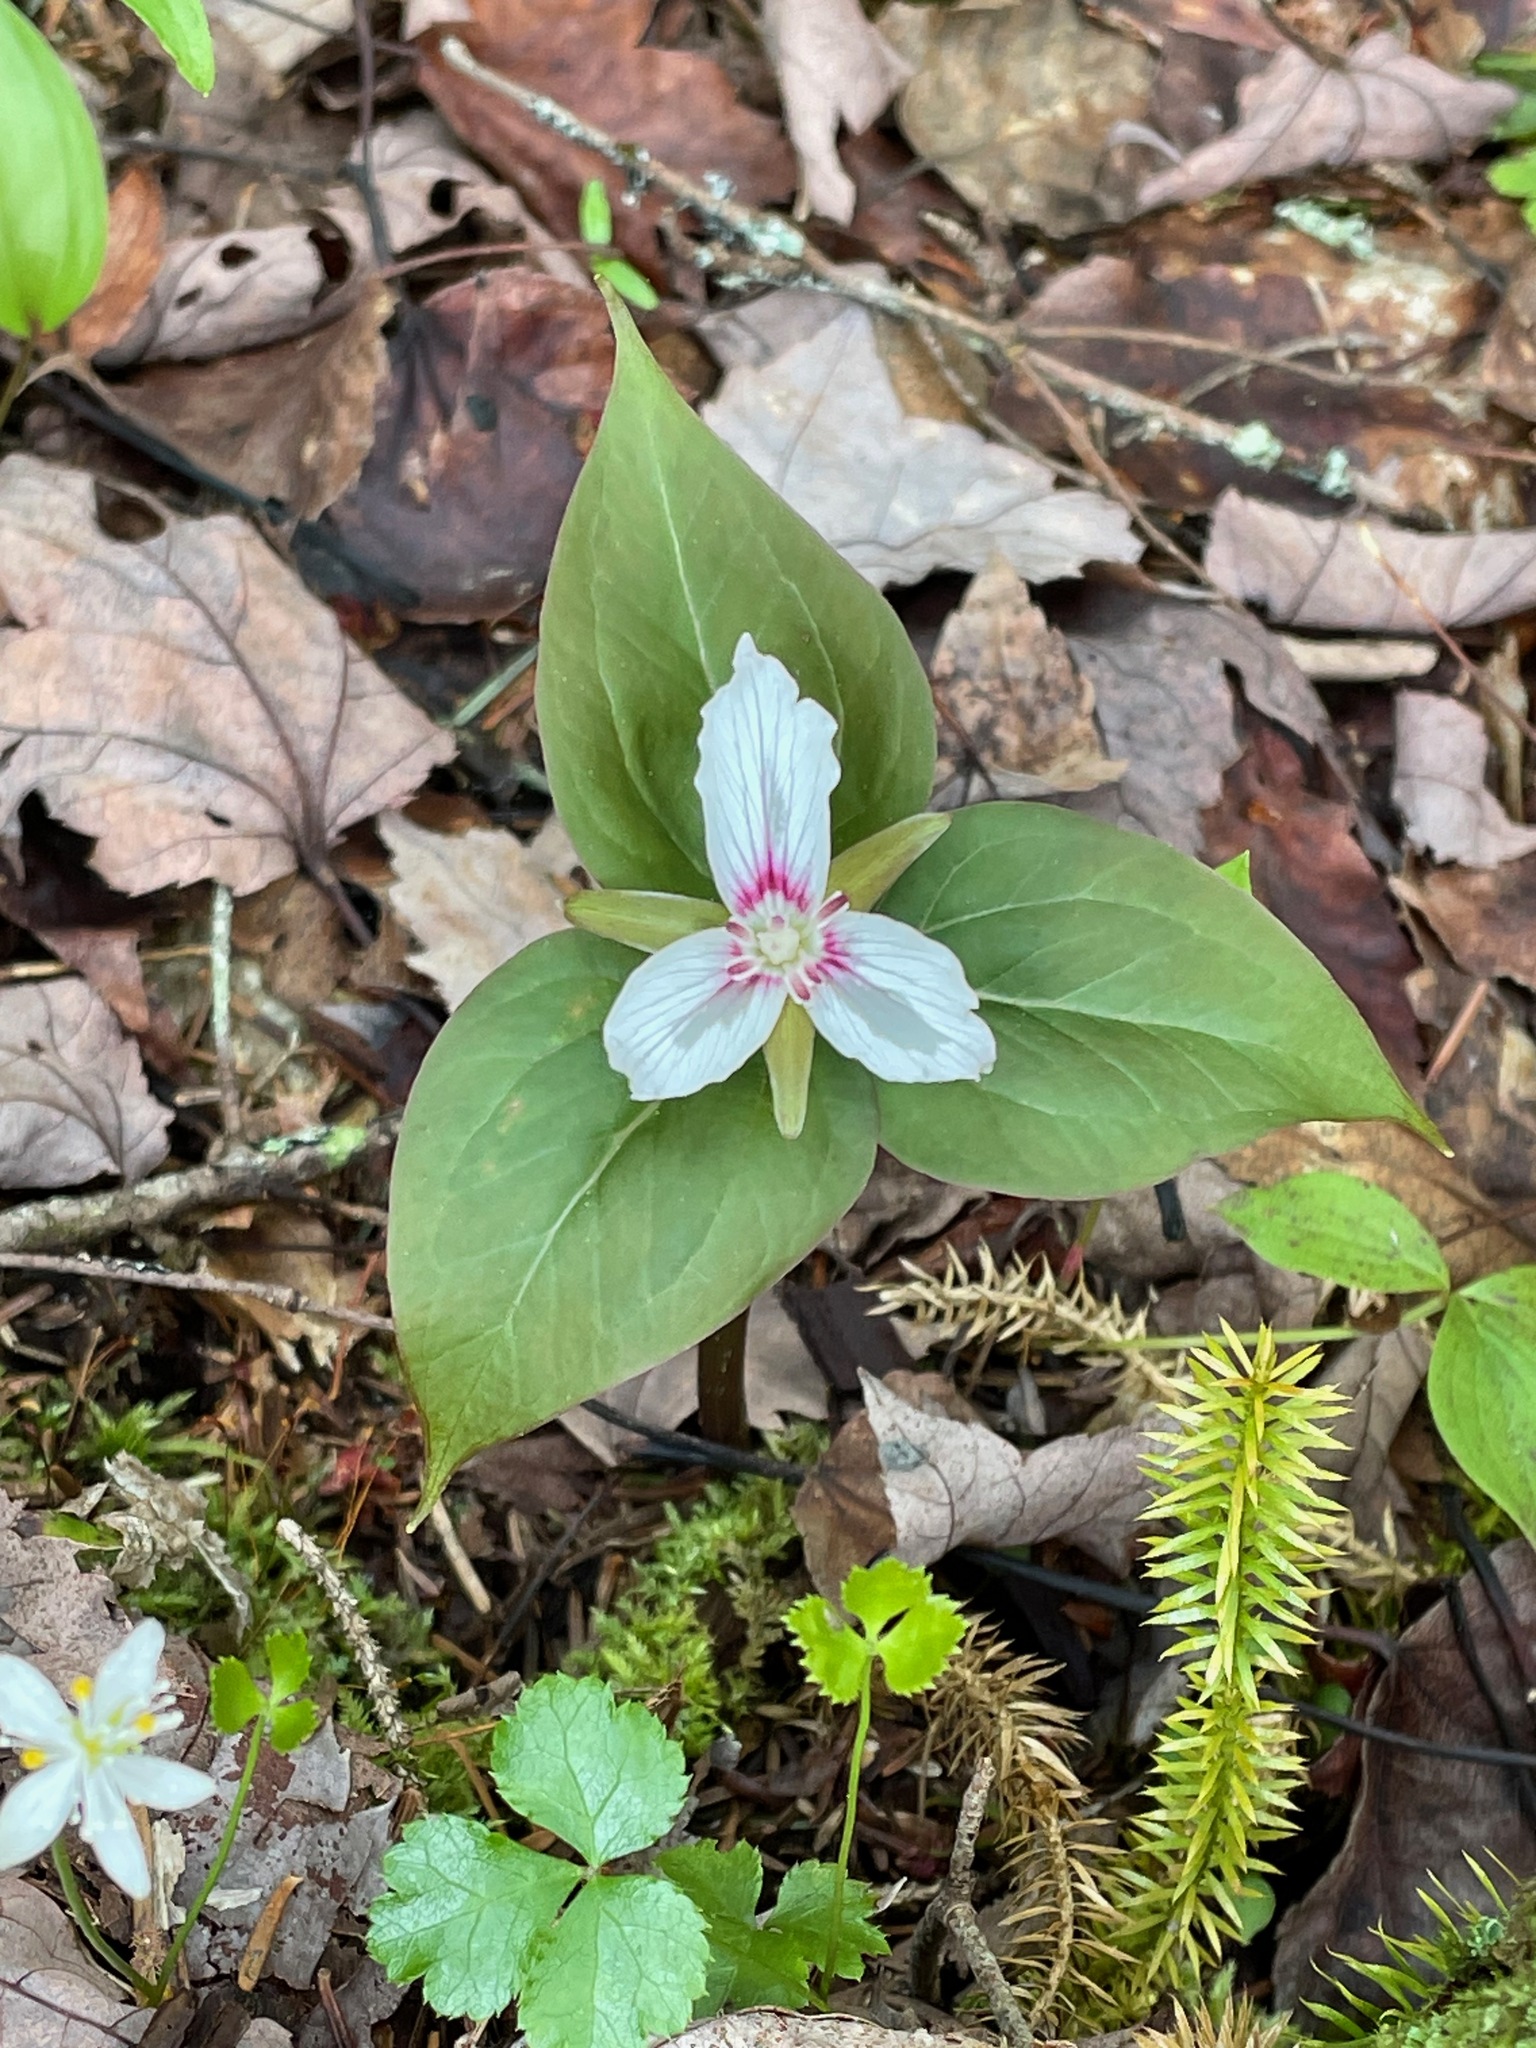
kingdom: Plantae
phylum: Tracheophyta
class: Liliopsida
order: Liliales
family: Melanthiaceae
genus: Trillium
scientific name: Trillium undulatum
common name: Paint trillium
